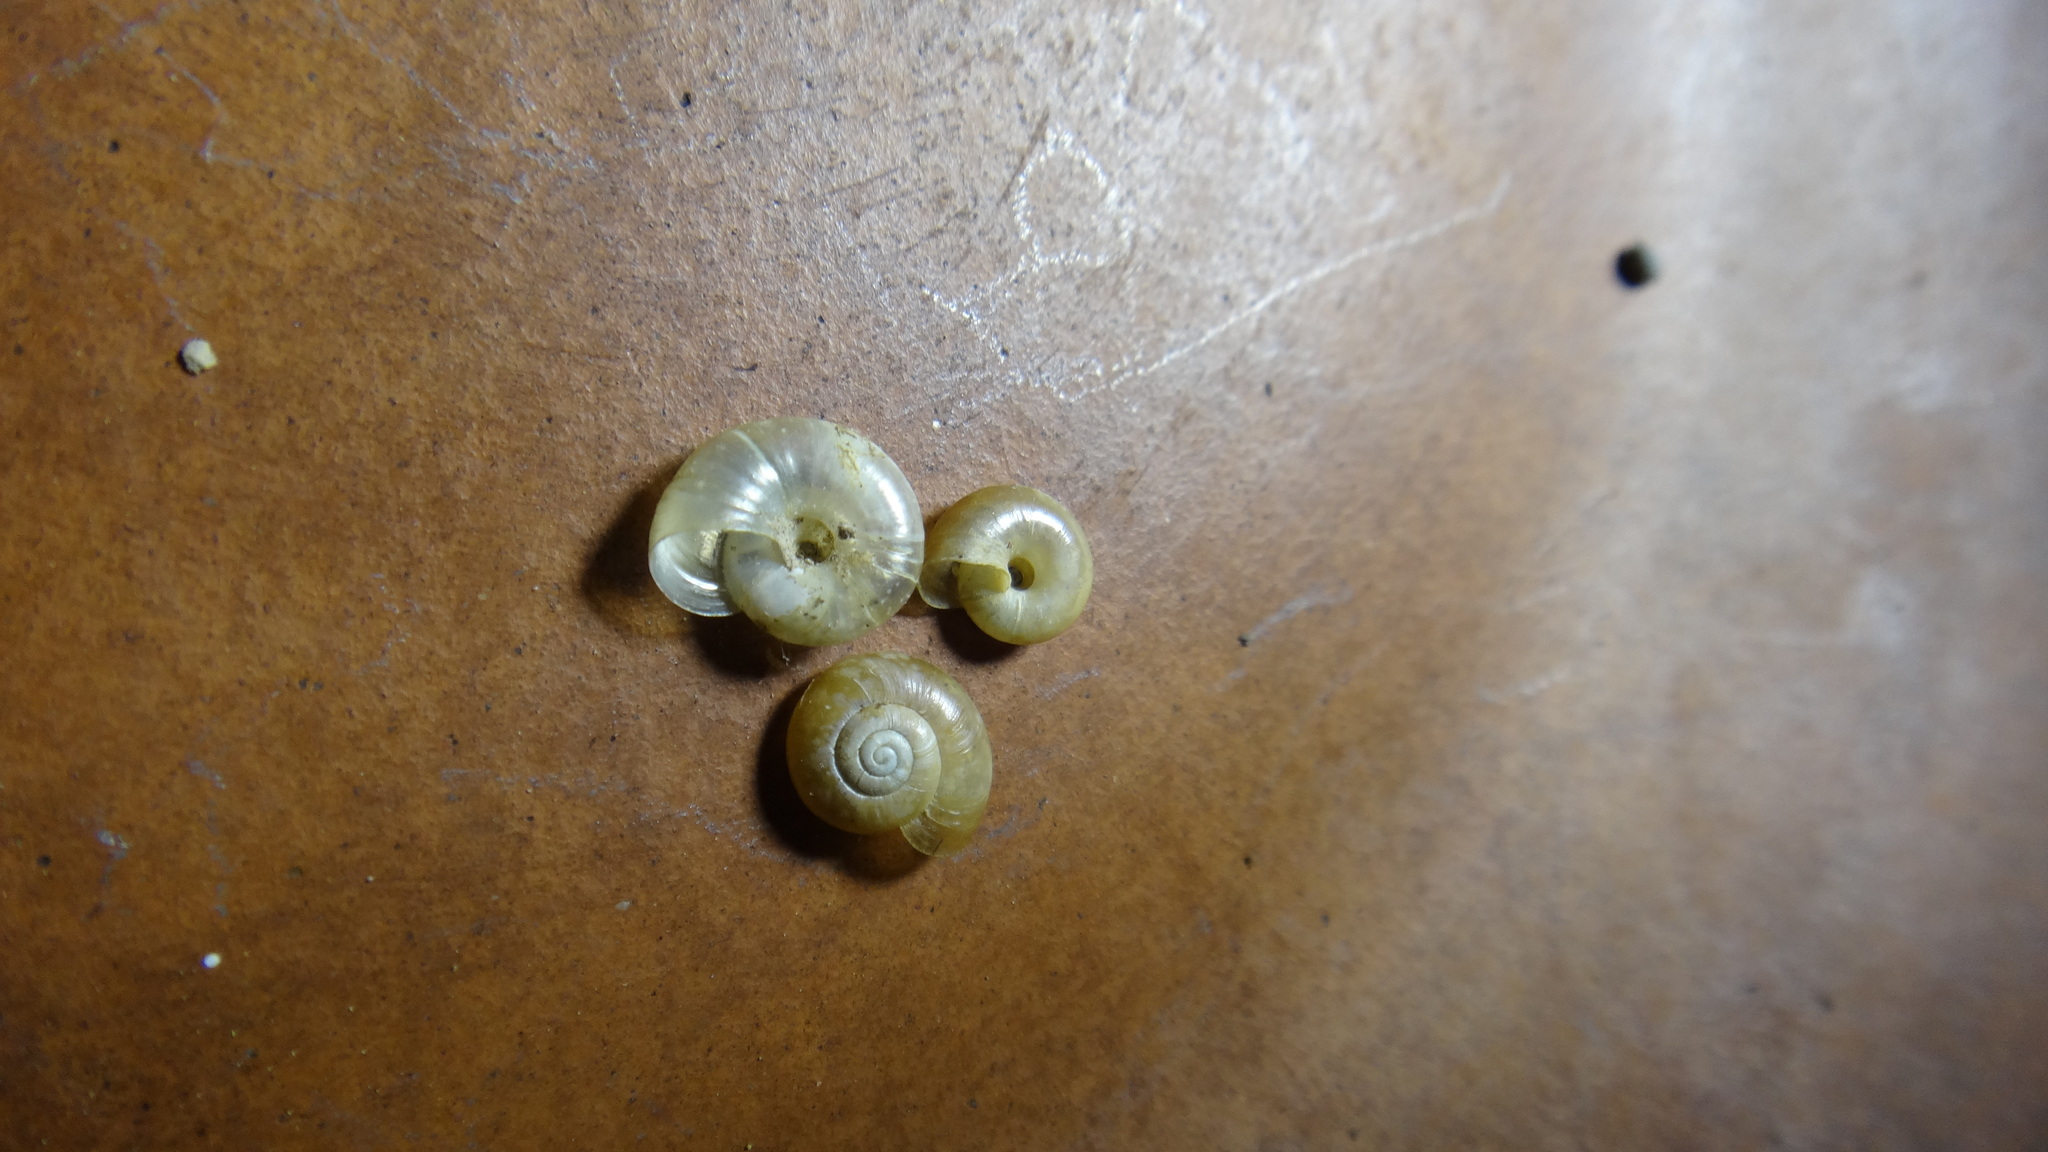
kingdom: Animalia
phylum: Mollusca
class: Gastropoda
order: Stylommatophora
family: Gastrodontidae
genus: Aegopinella
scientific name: Aegopinella minor
